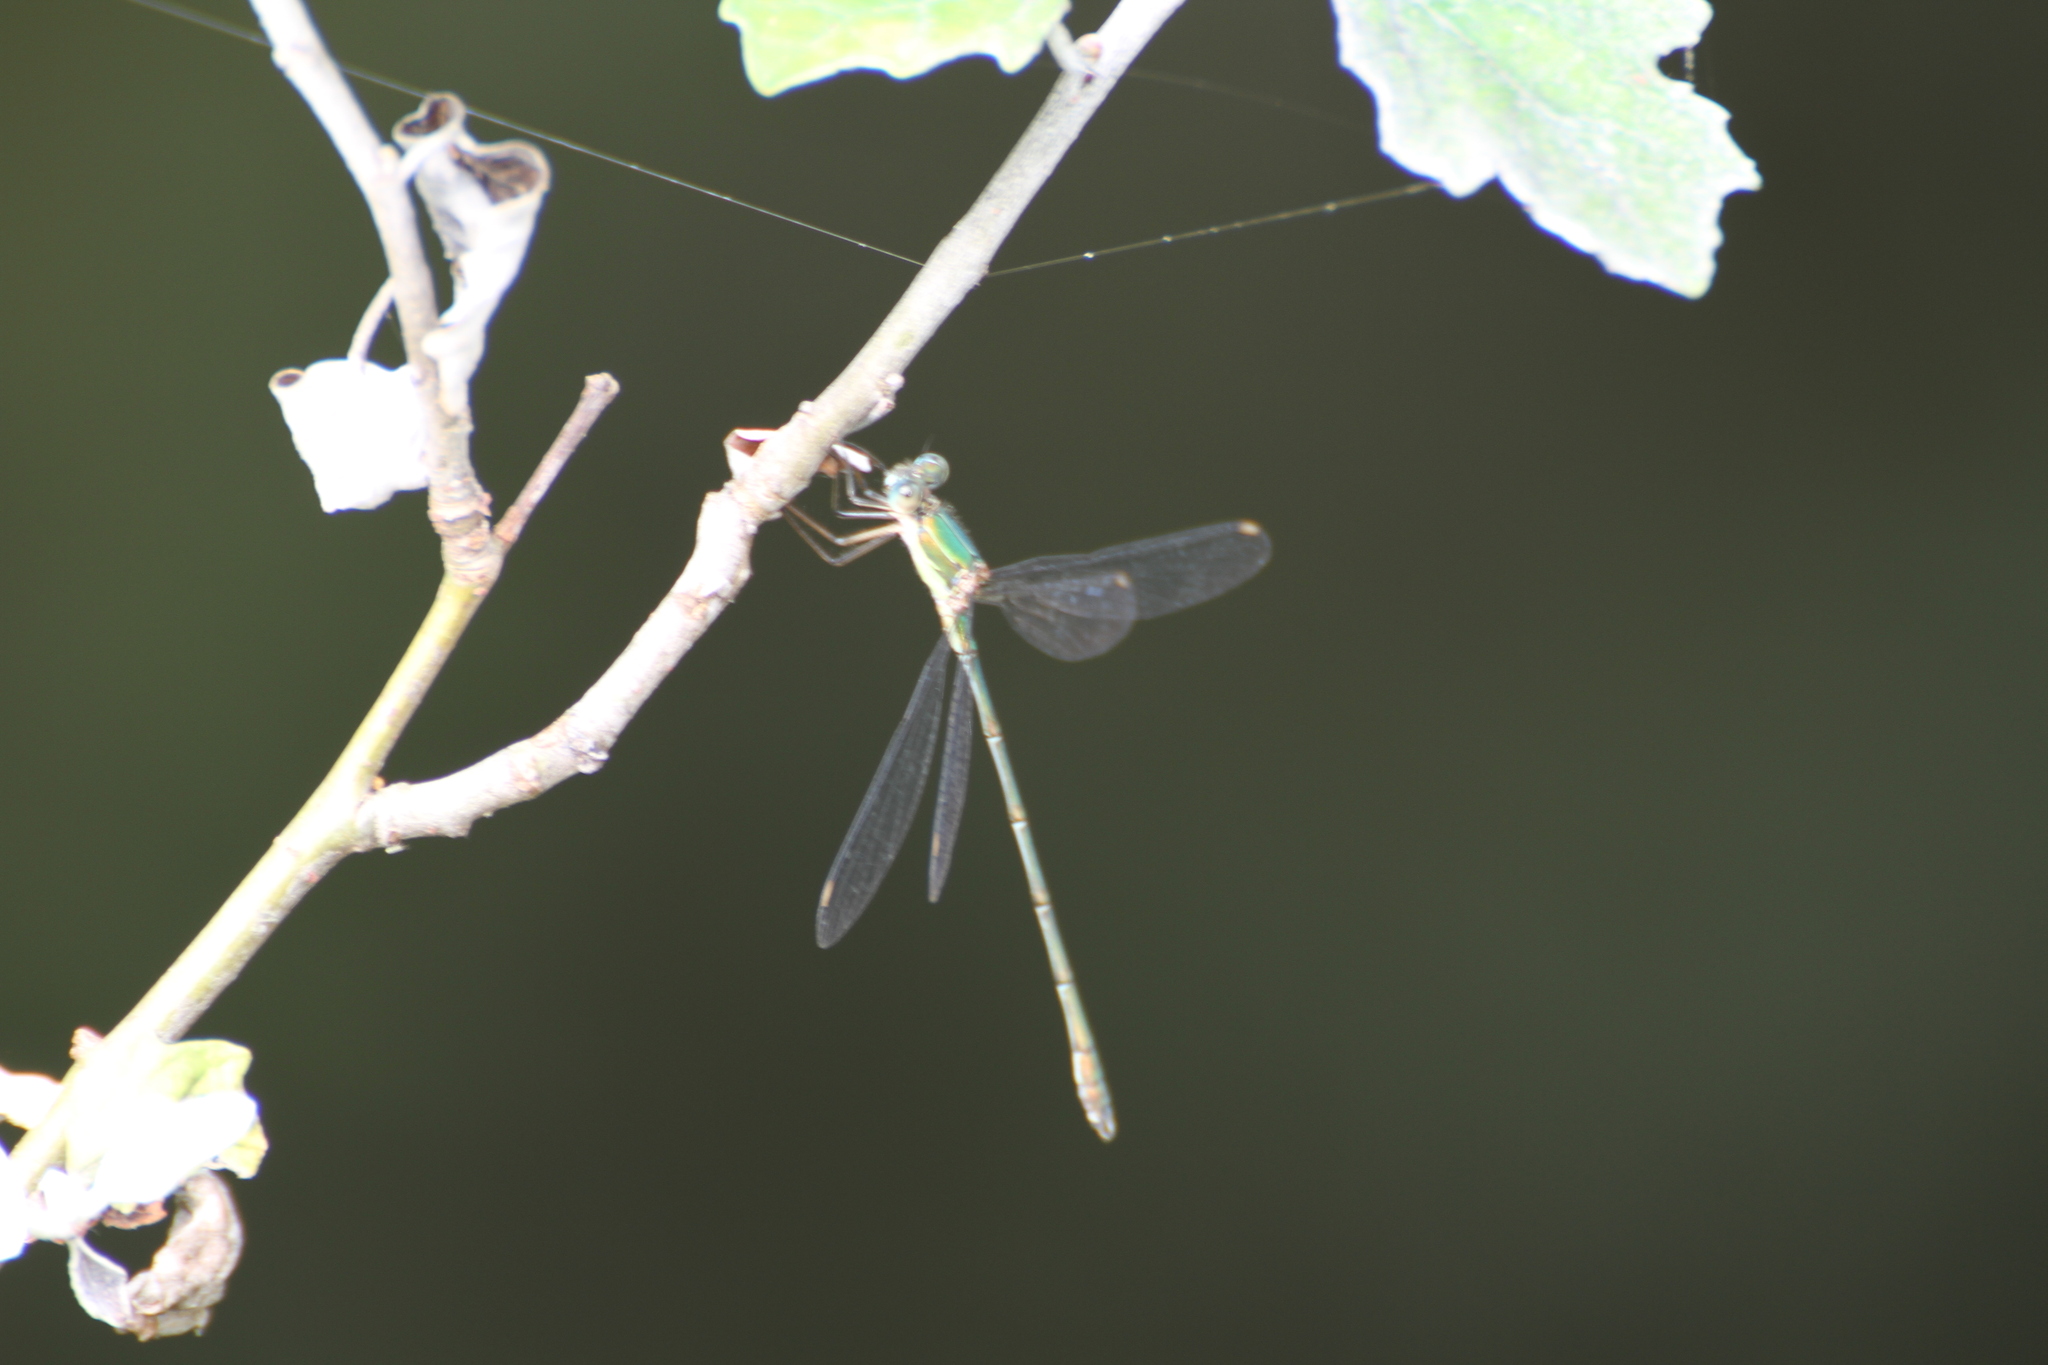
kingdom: Animalia
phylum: Arthropoda
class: Insecta
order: Odonata
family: Lestidae
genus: Chalcolestes
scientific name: Chalcolestes viridis
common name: Green emerald damselfly
